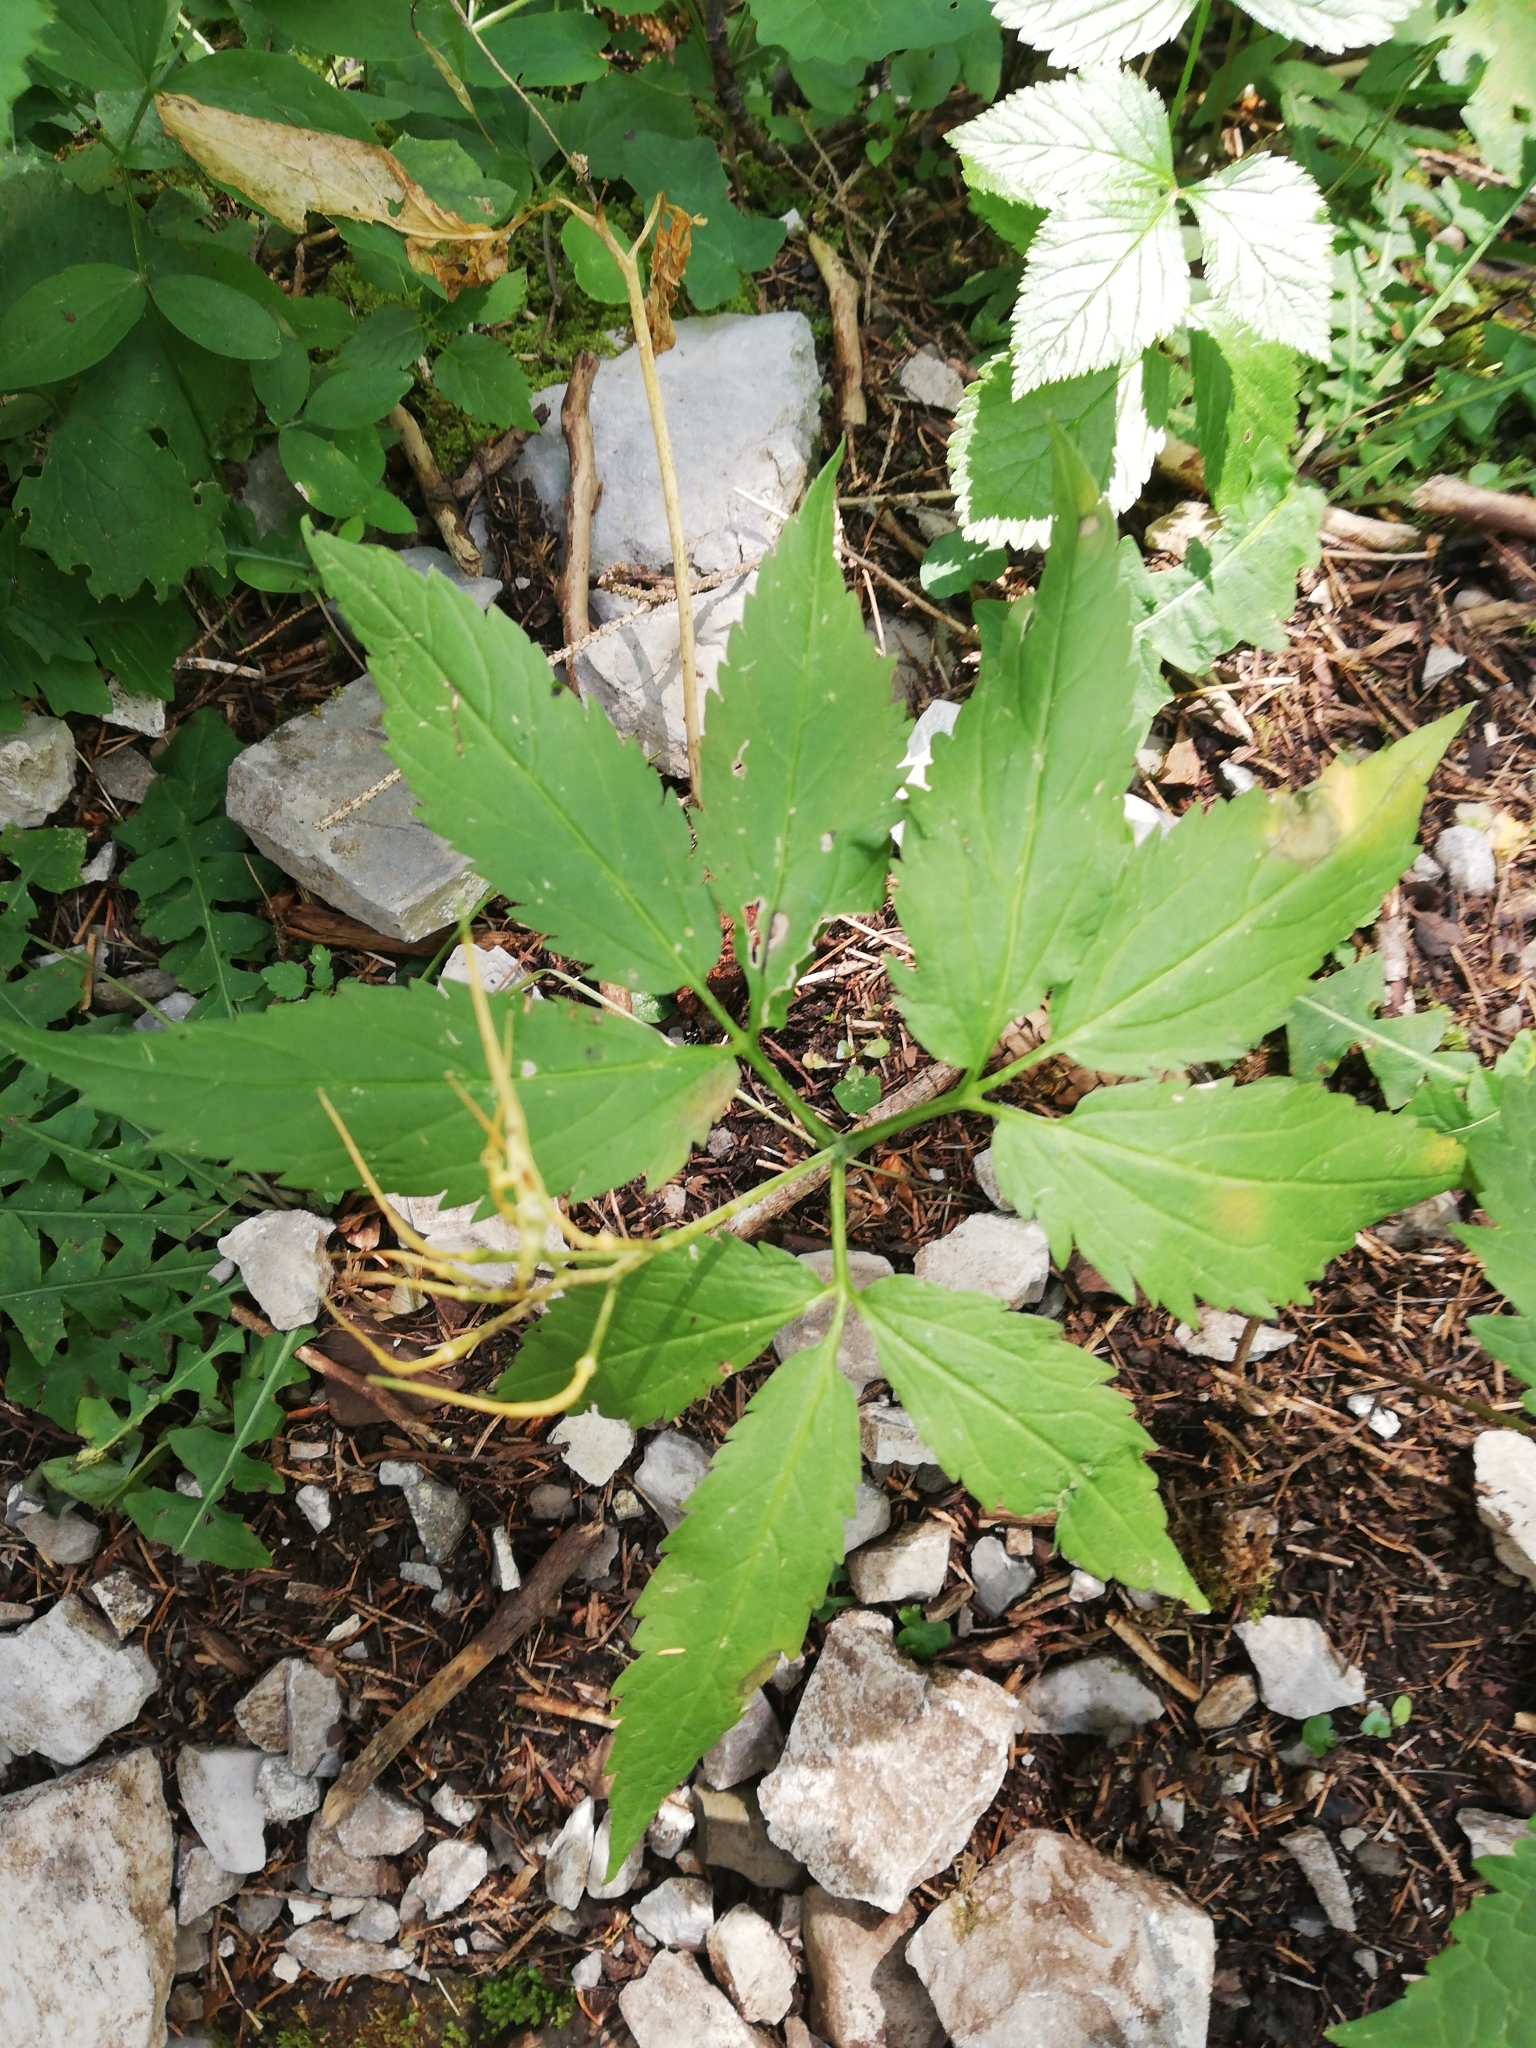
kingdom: Plantae
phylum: Tracheophyta
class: Magnoliopsida
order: Brassicales
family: Brassicaceae
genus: Cardamine
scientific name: Cardamine enneaphyllos
